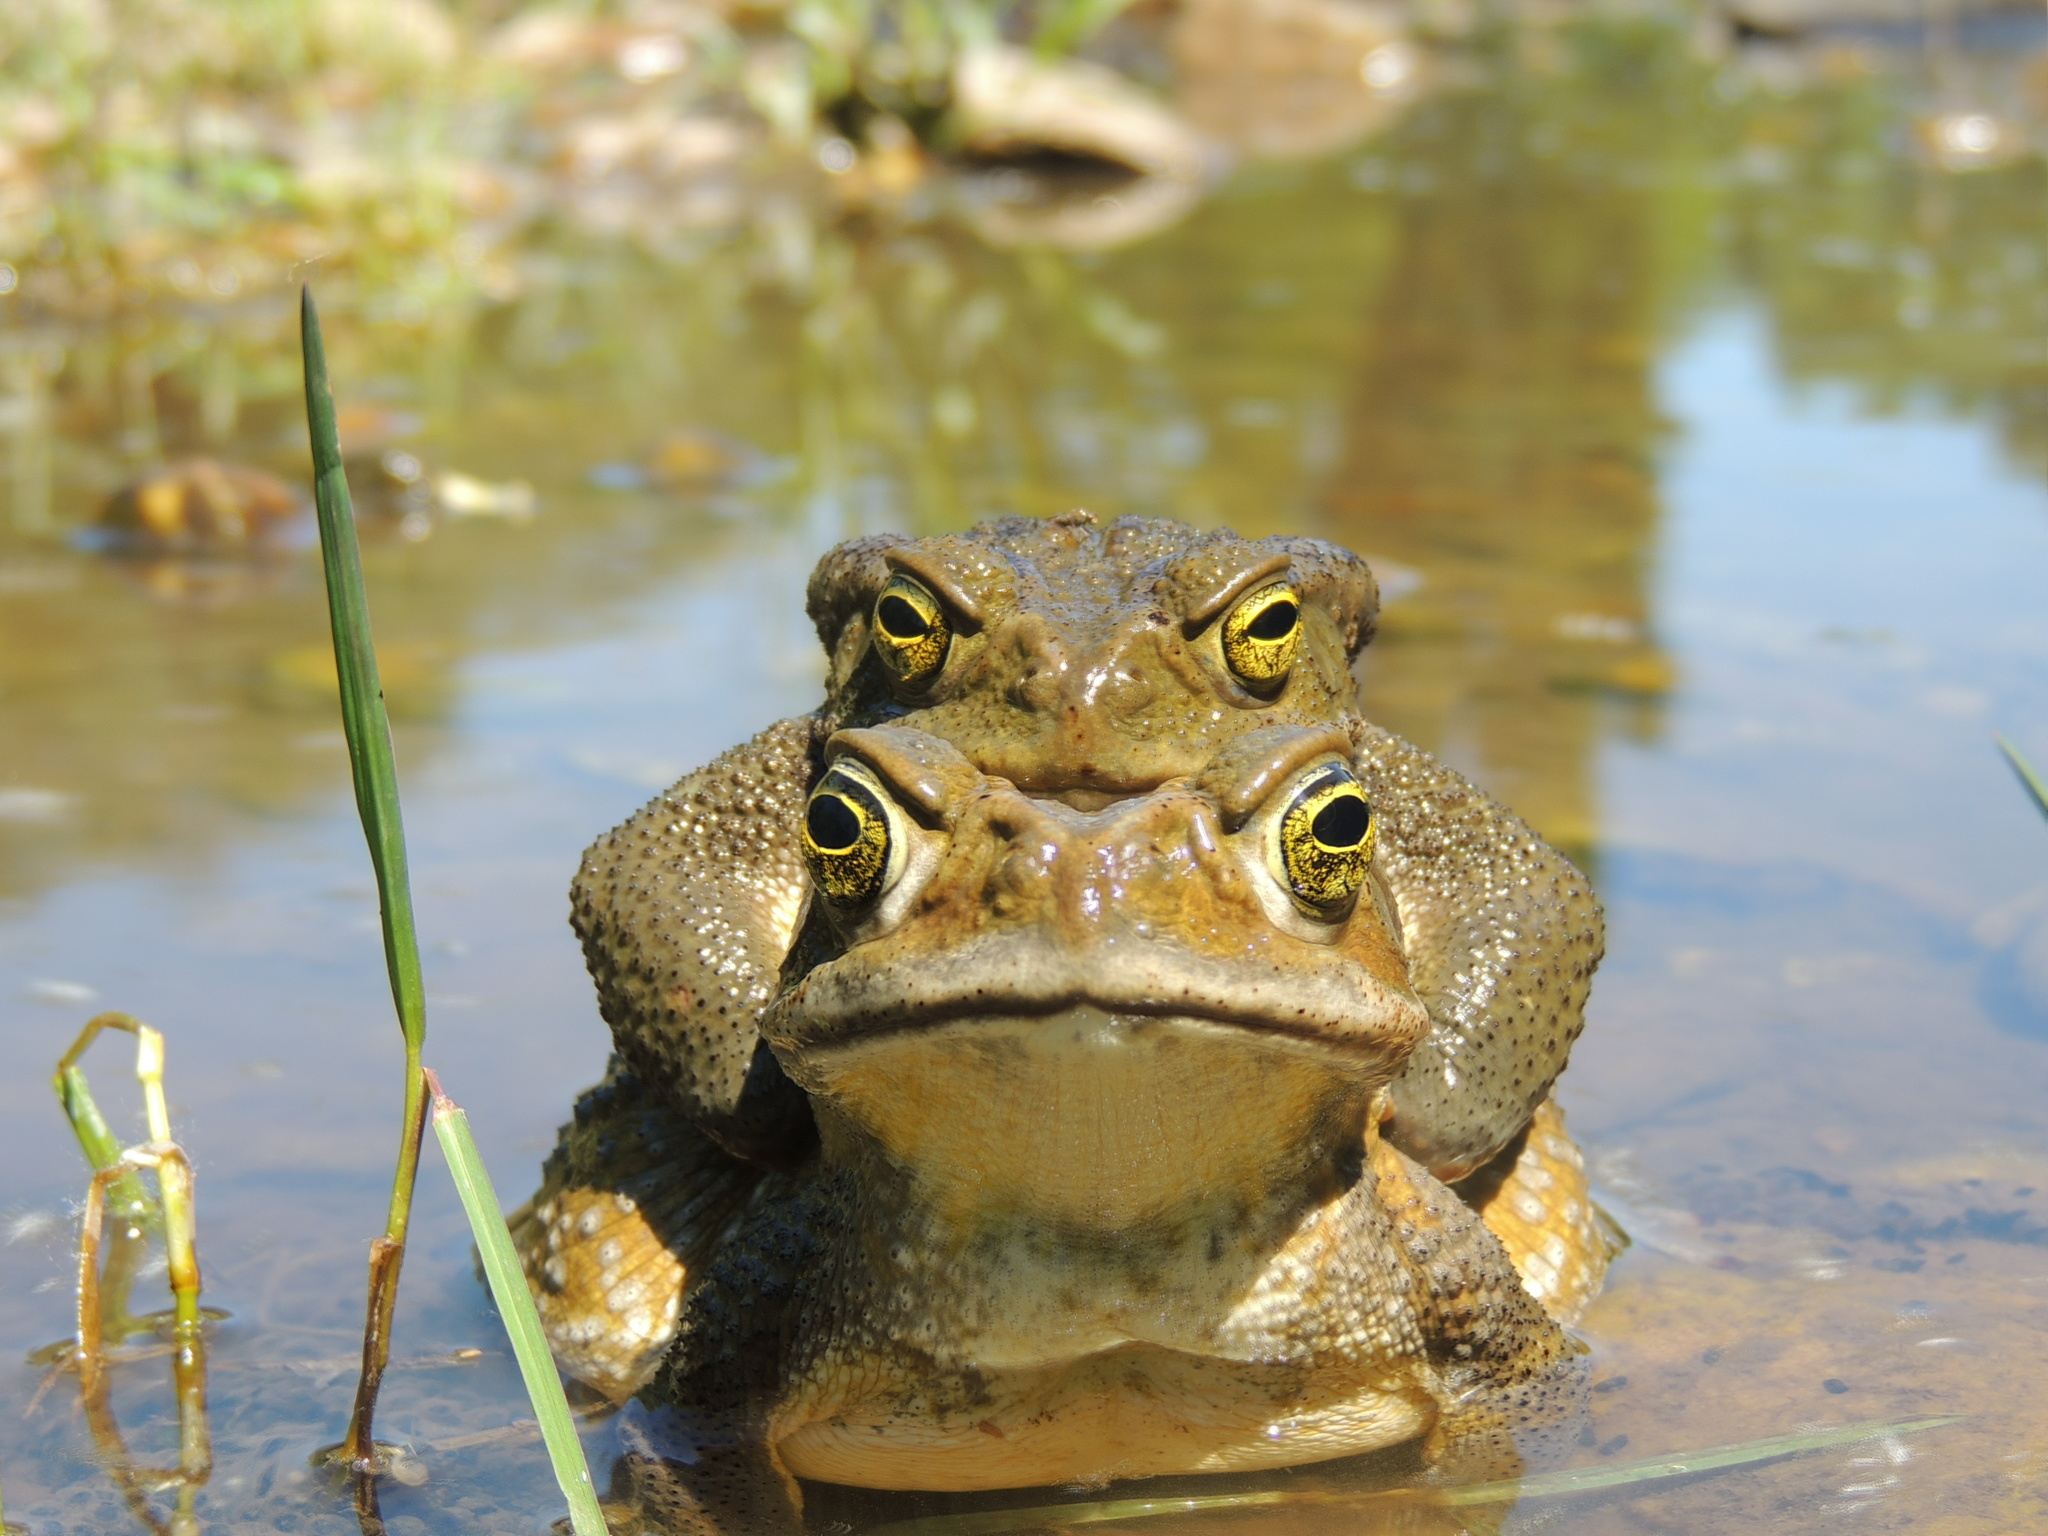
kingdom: Animalia
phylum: Chordata
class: Amphibia
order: Anura
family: Bufonidae
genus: Rhinella
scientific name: Rhinella arenarum
